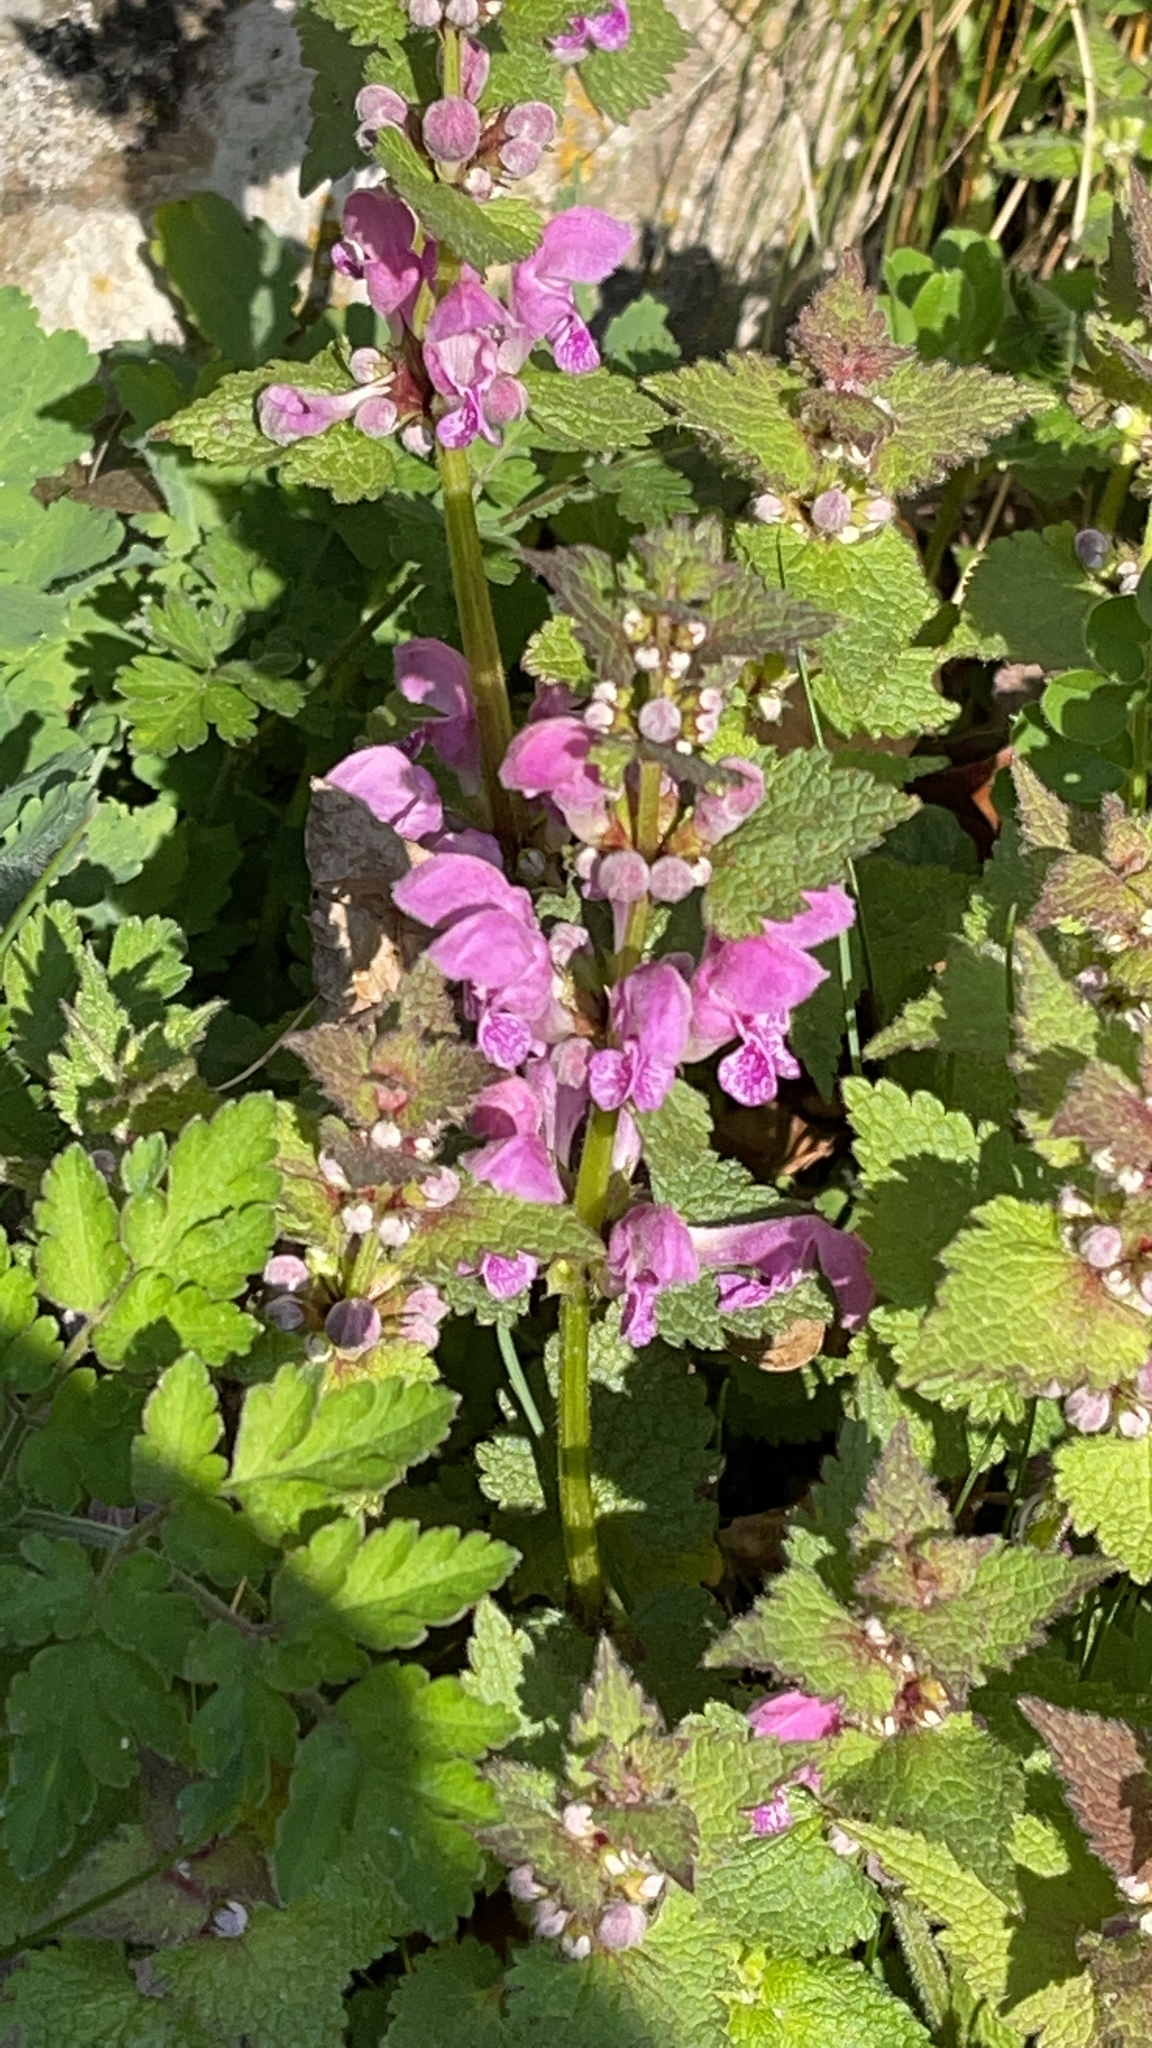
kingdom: Plantae
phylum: Tracheophyta
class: Magnoliopsida
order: Lamiales
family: Lamiaceae
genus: Lamium
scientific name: Lamium maculatum
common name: Spotted dead-nettle
